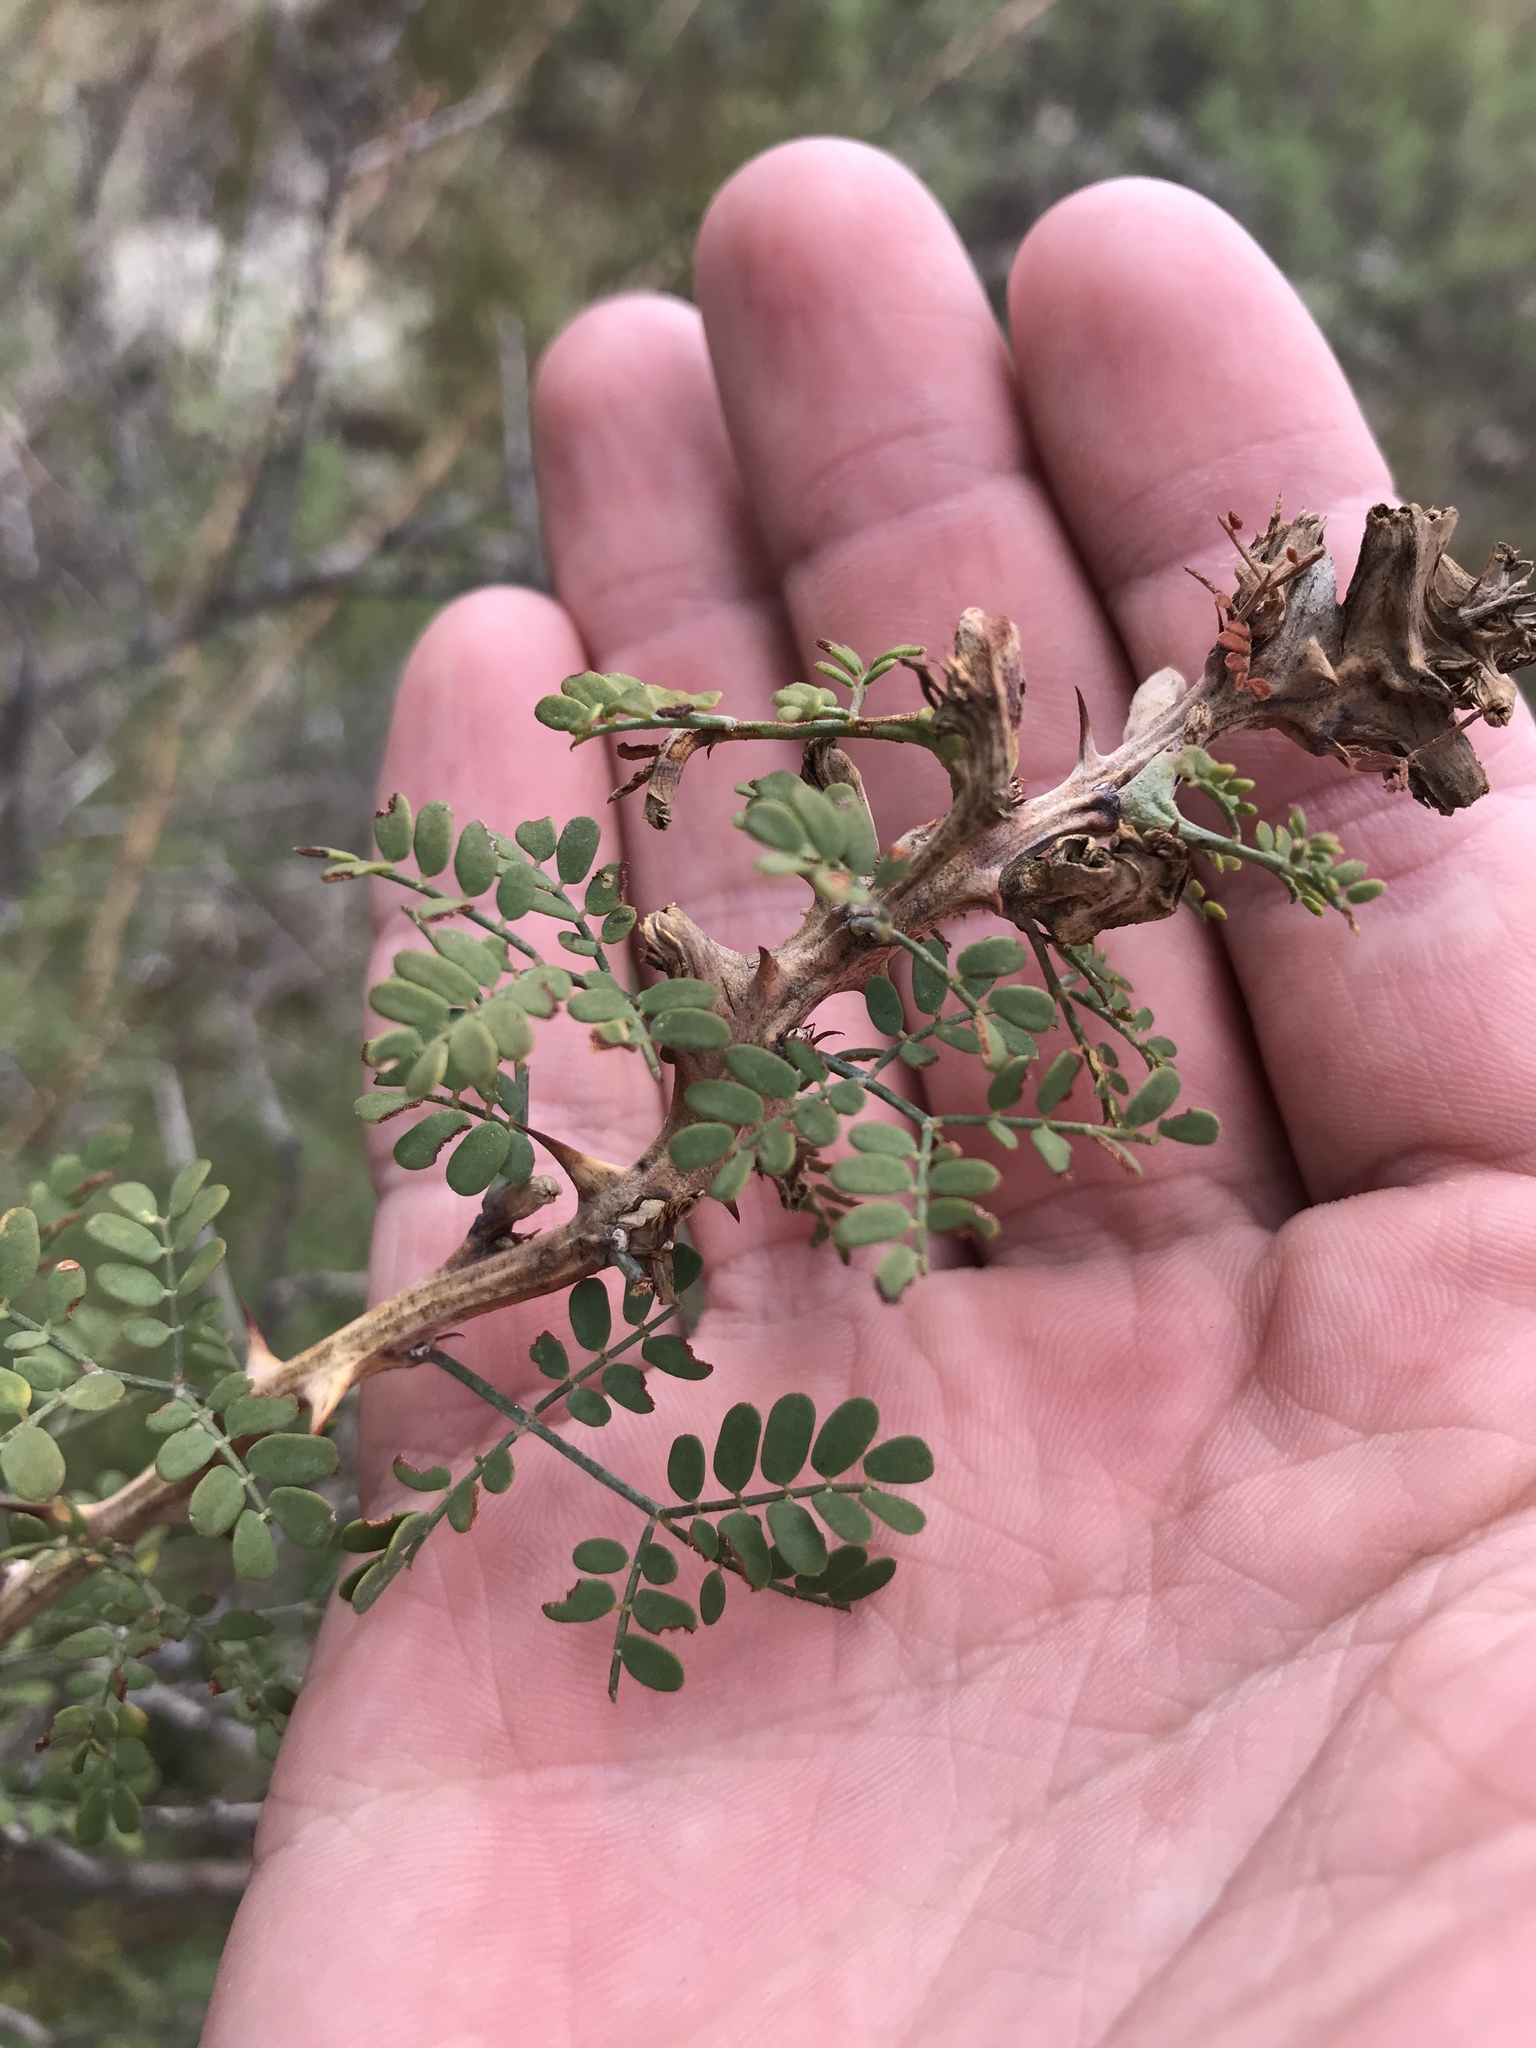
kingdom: Plantae
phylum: Tracheophyta
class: Magnoliopsida
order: Fabales
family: Fabaceae
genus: Mimosa
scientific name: Mimosa borealis
